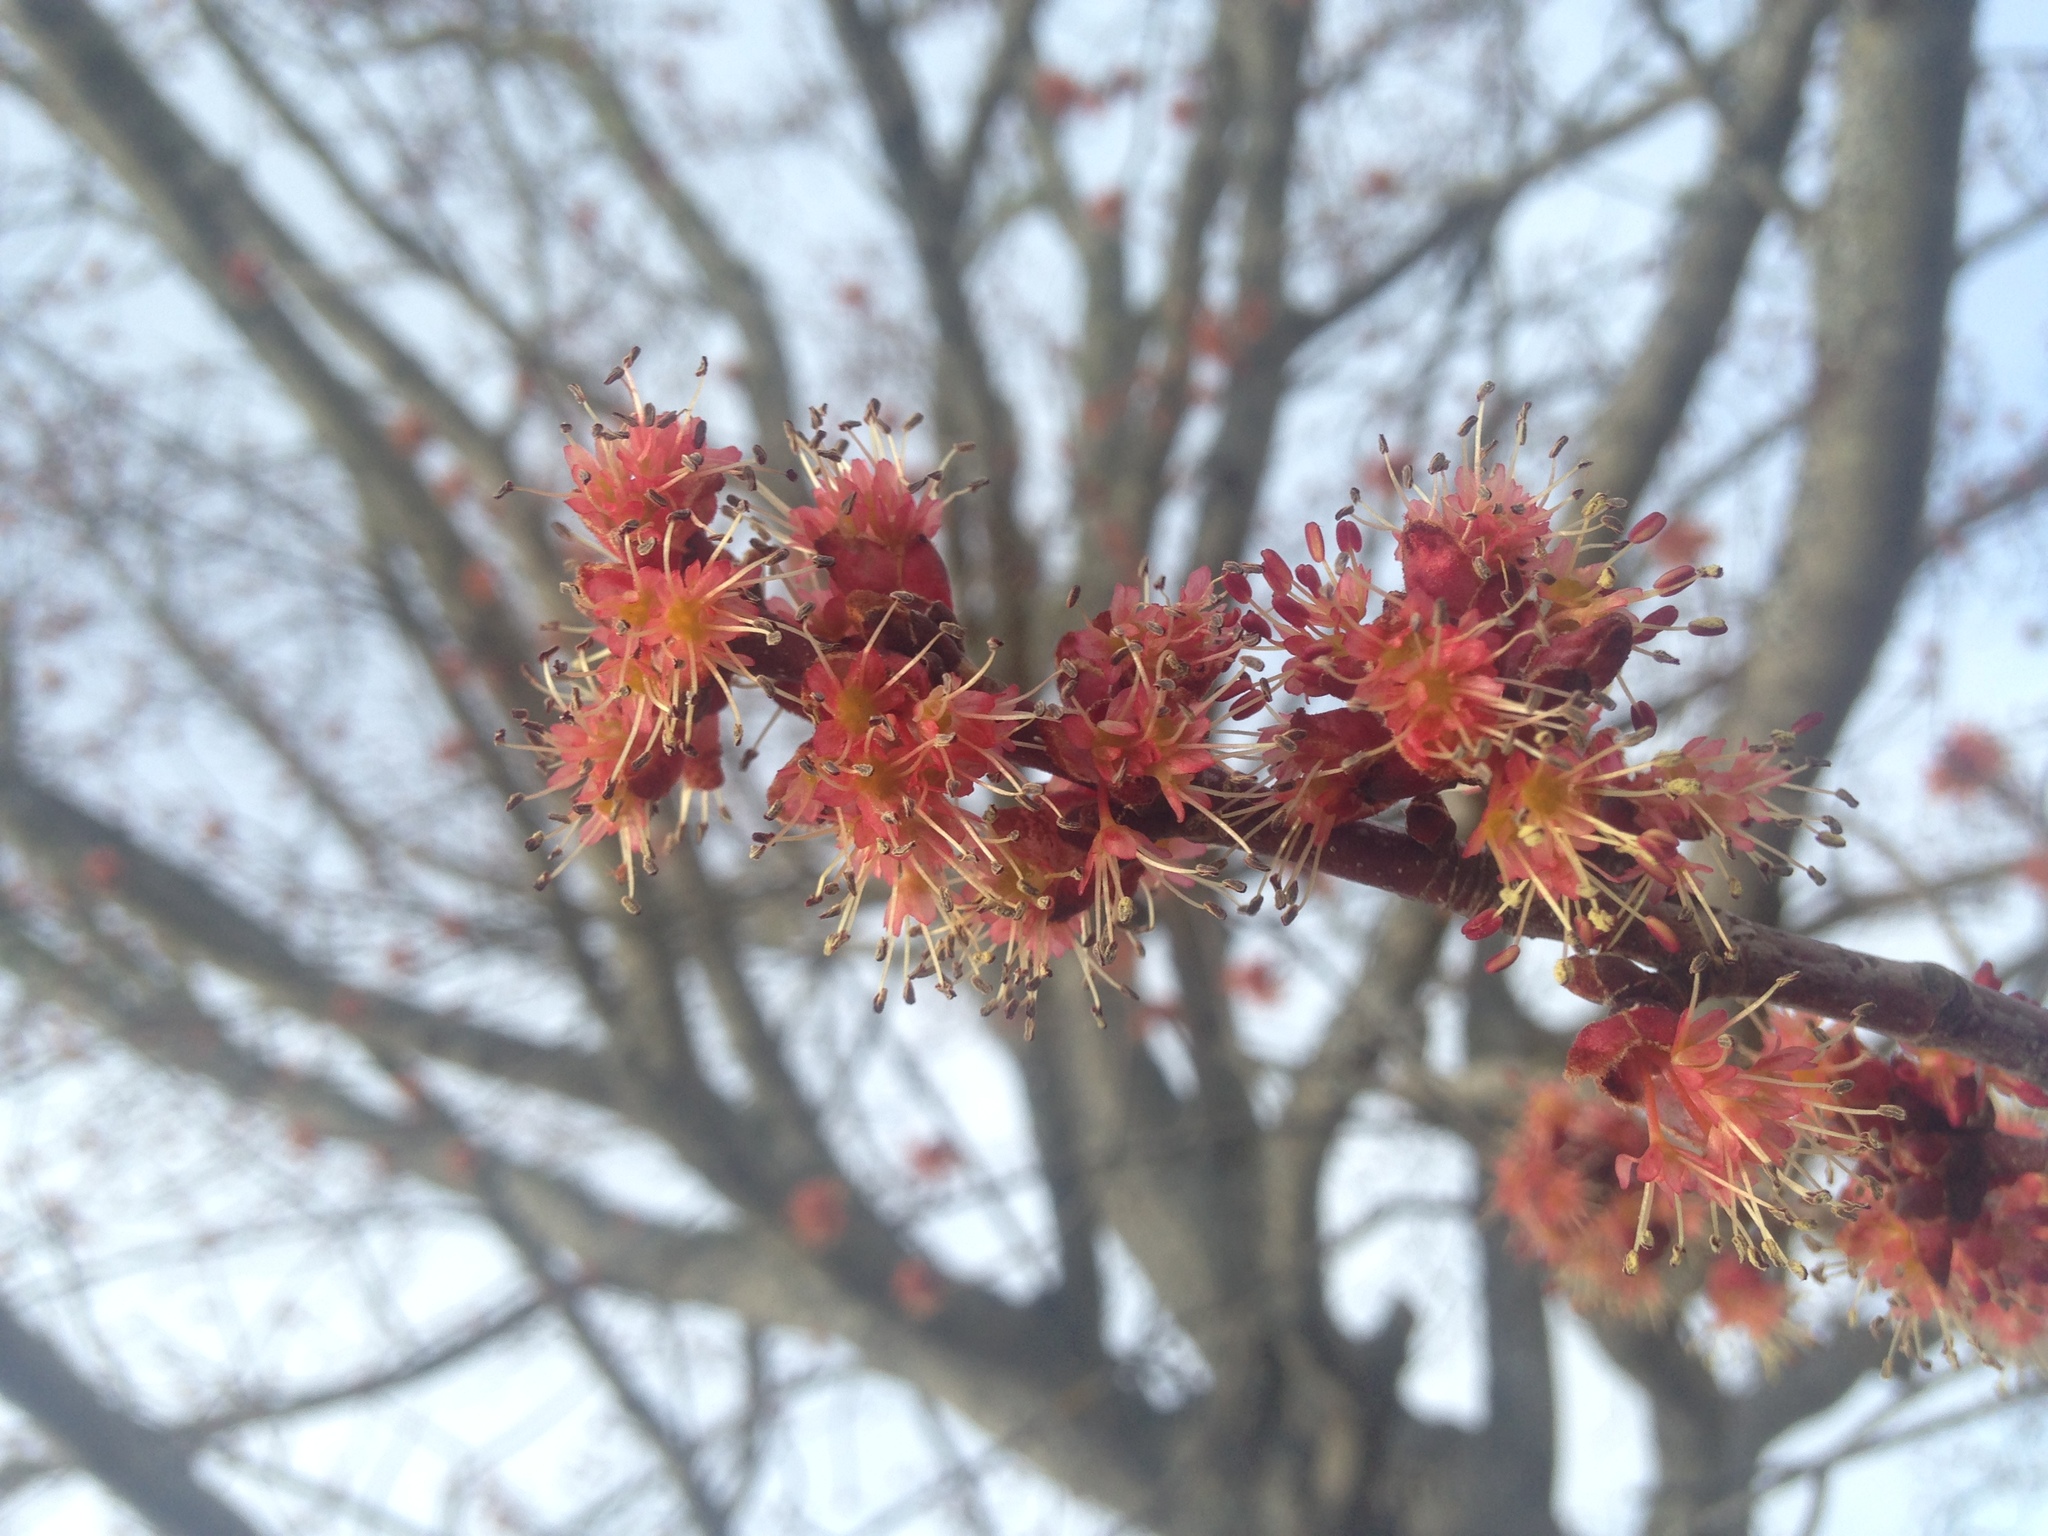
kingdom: Plantae
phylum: Tracheophyta
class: Magnoliopsida
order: Sapindales
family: Sapindaceae
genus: Acer
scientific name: Acer rubrum
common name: Red maple
